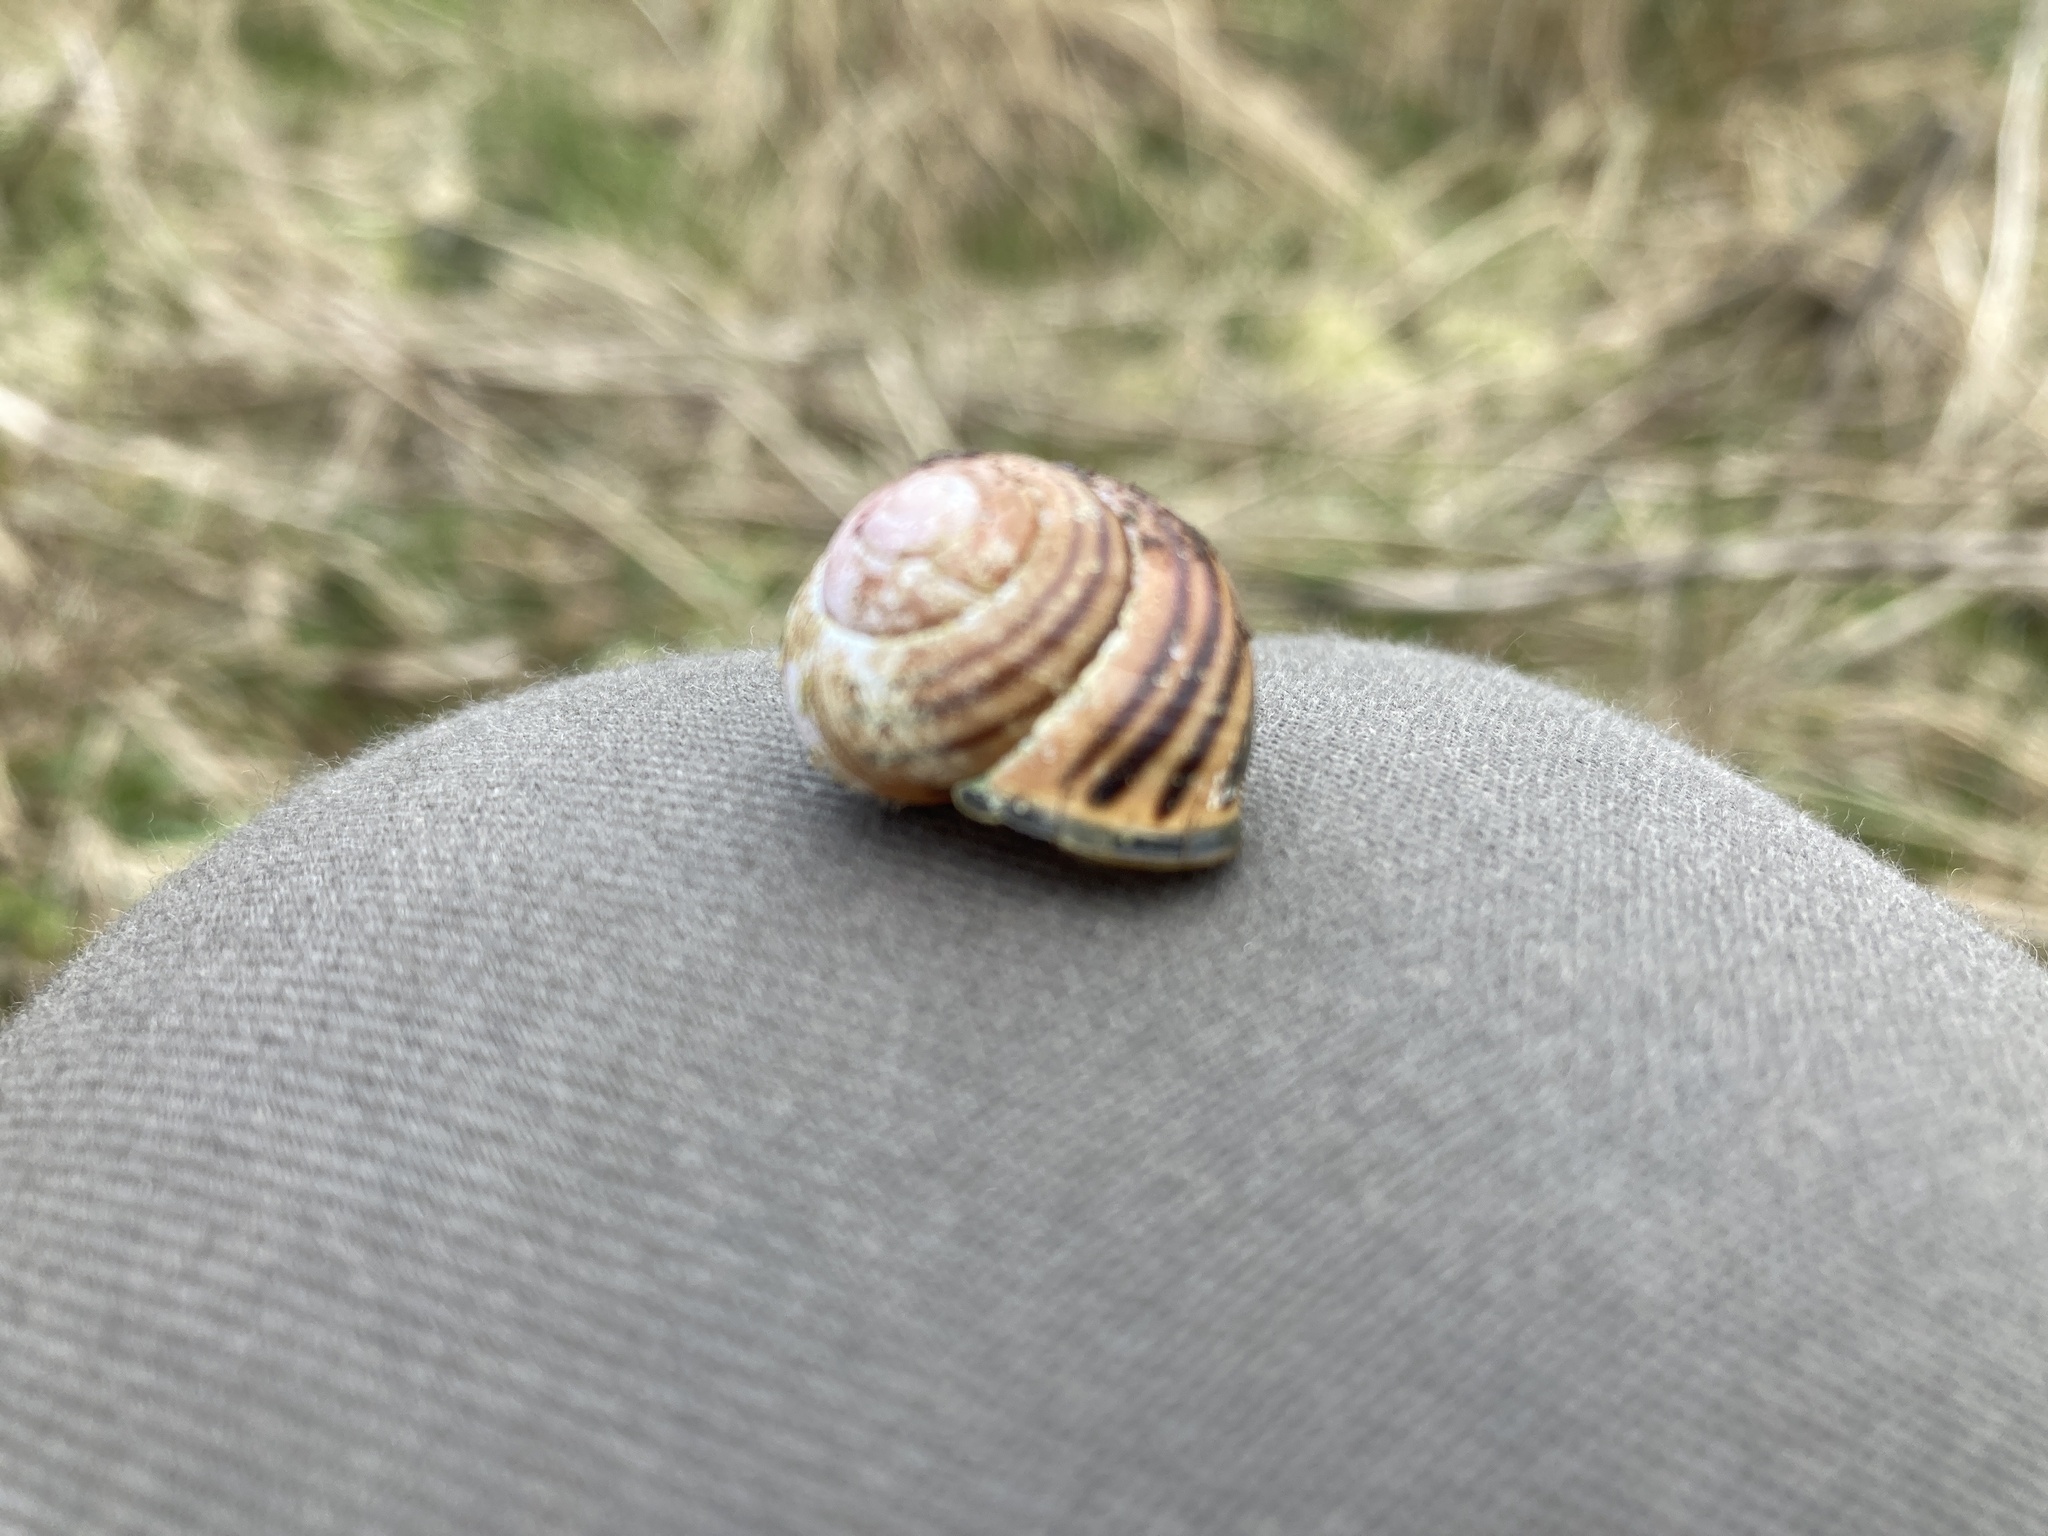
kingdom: Animalia
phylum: Mollusca
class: Gastropoda
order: Stylommatophora
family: Helicidae
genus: Cepaea
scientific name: Cepaea nemoralis
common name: Grovesnail
